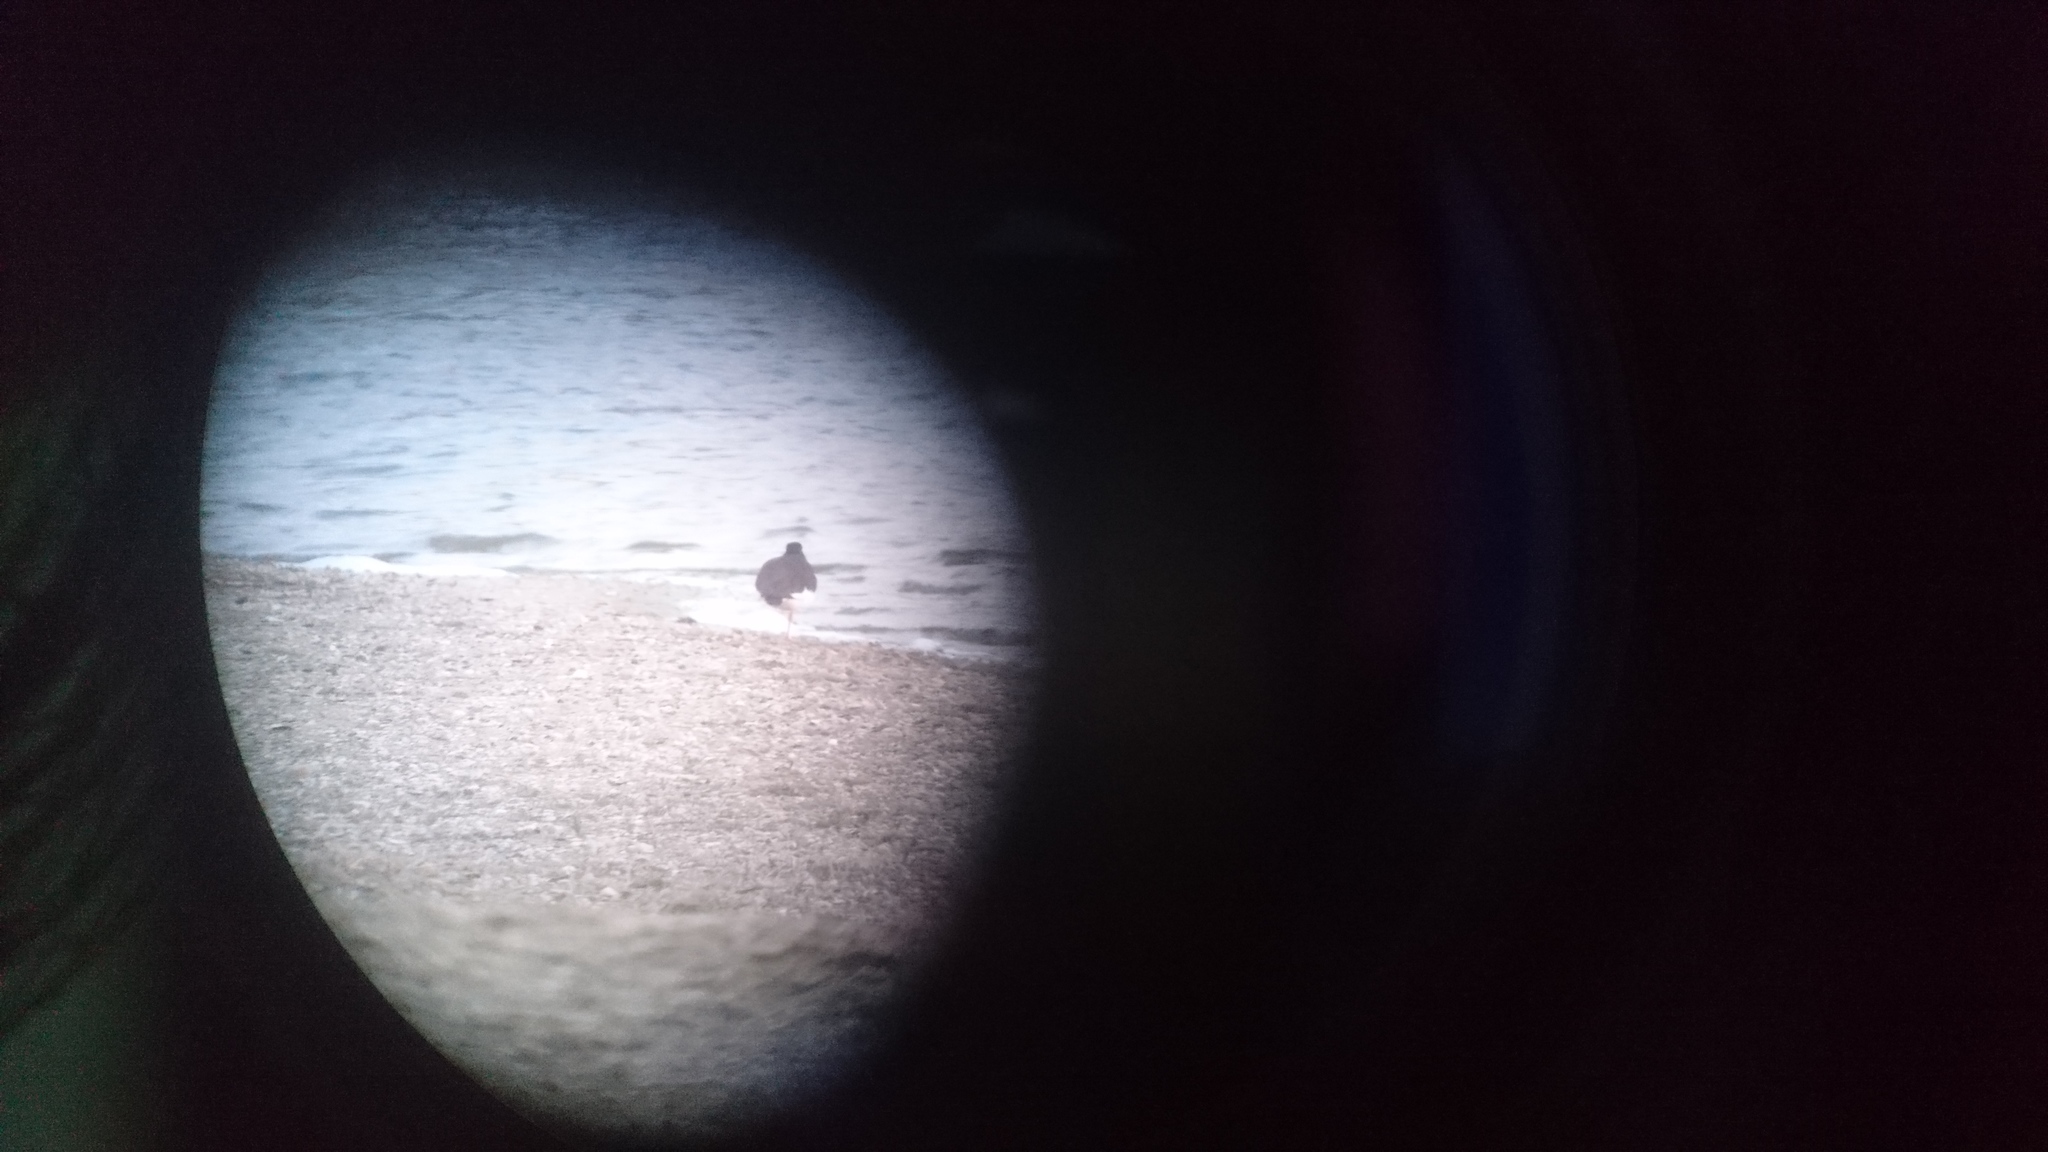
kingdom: Animalia
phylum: Chordata
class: Aves
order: Charadriiformes
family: Haematopodidae
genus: Haematopus
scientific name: Haematopus ostralegus
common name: Eurasian oystercatcher
